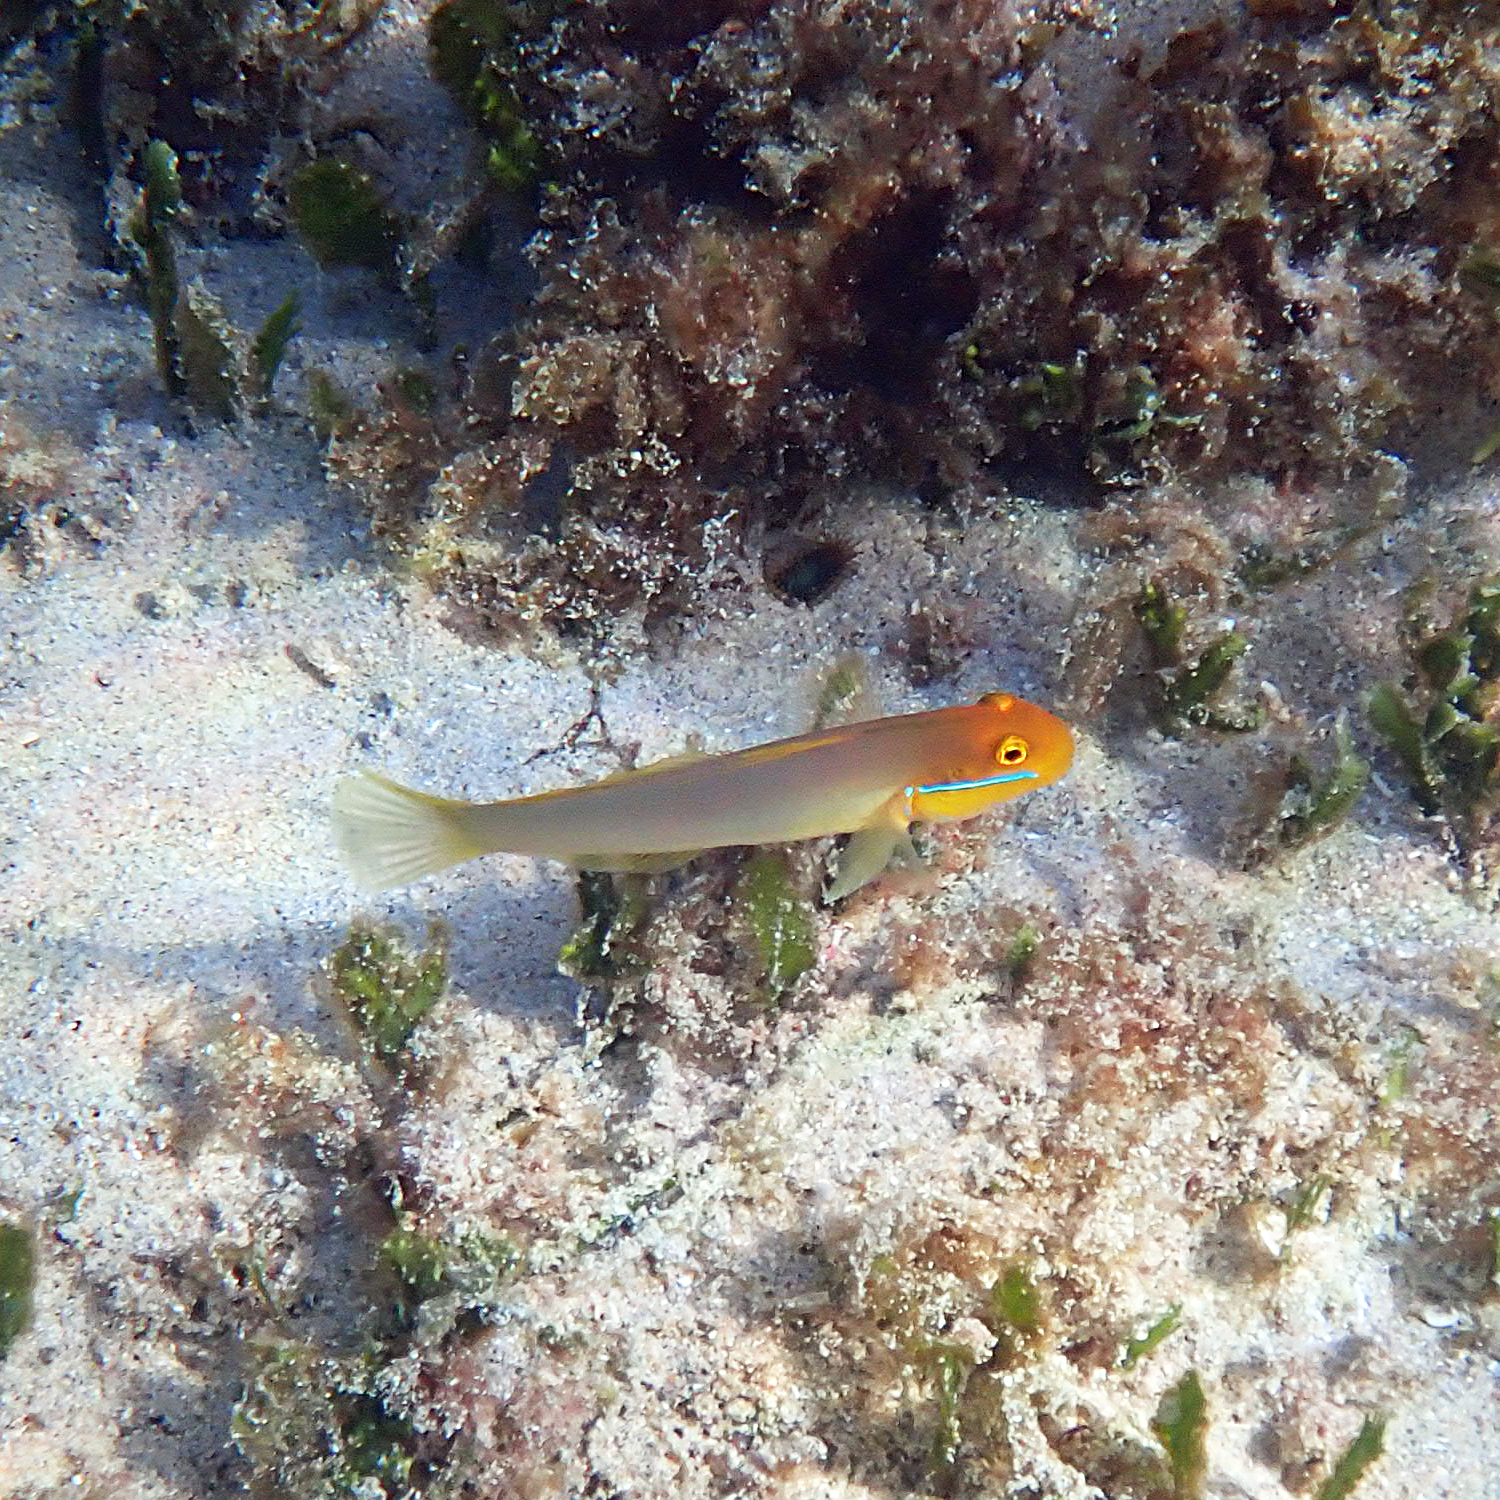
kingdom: Animalia
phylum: Chordata
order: Perciformes
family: Gobiidae
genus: Valenciennea
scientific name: Valenciennea strigata
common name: Blueband goby
